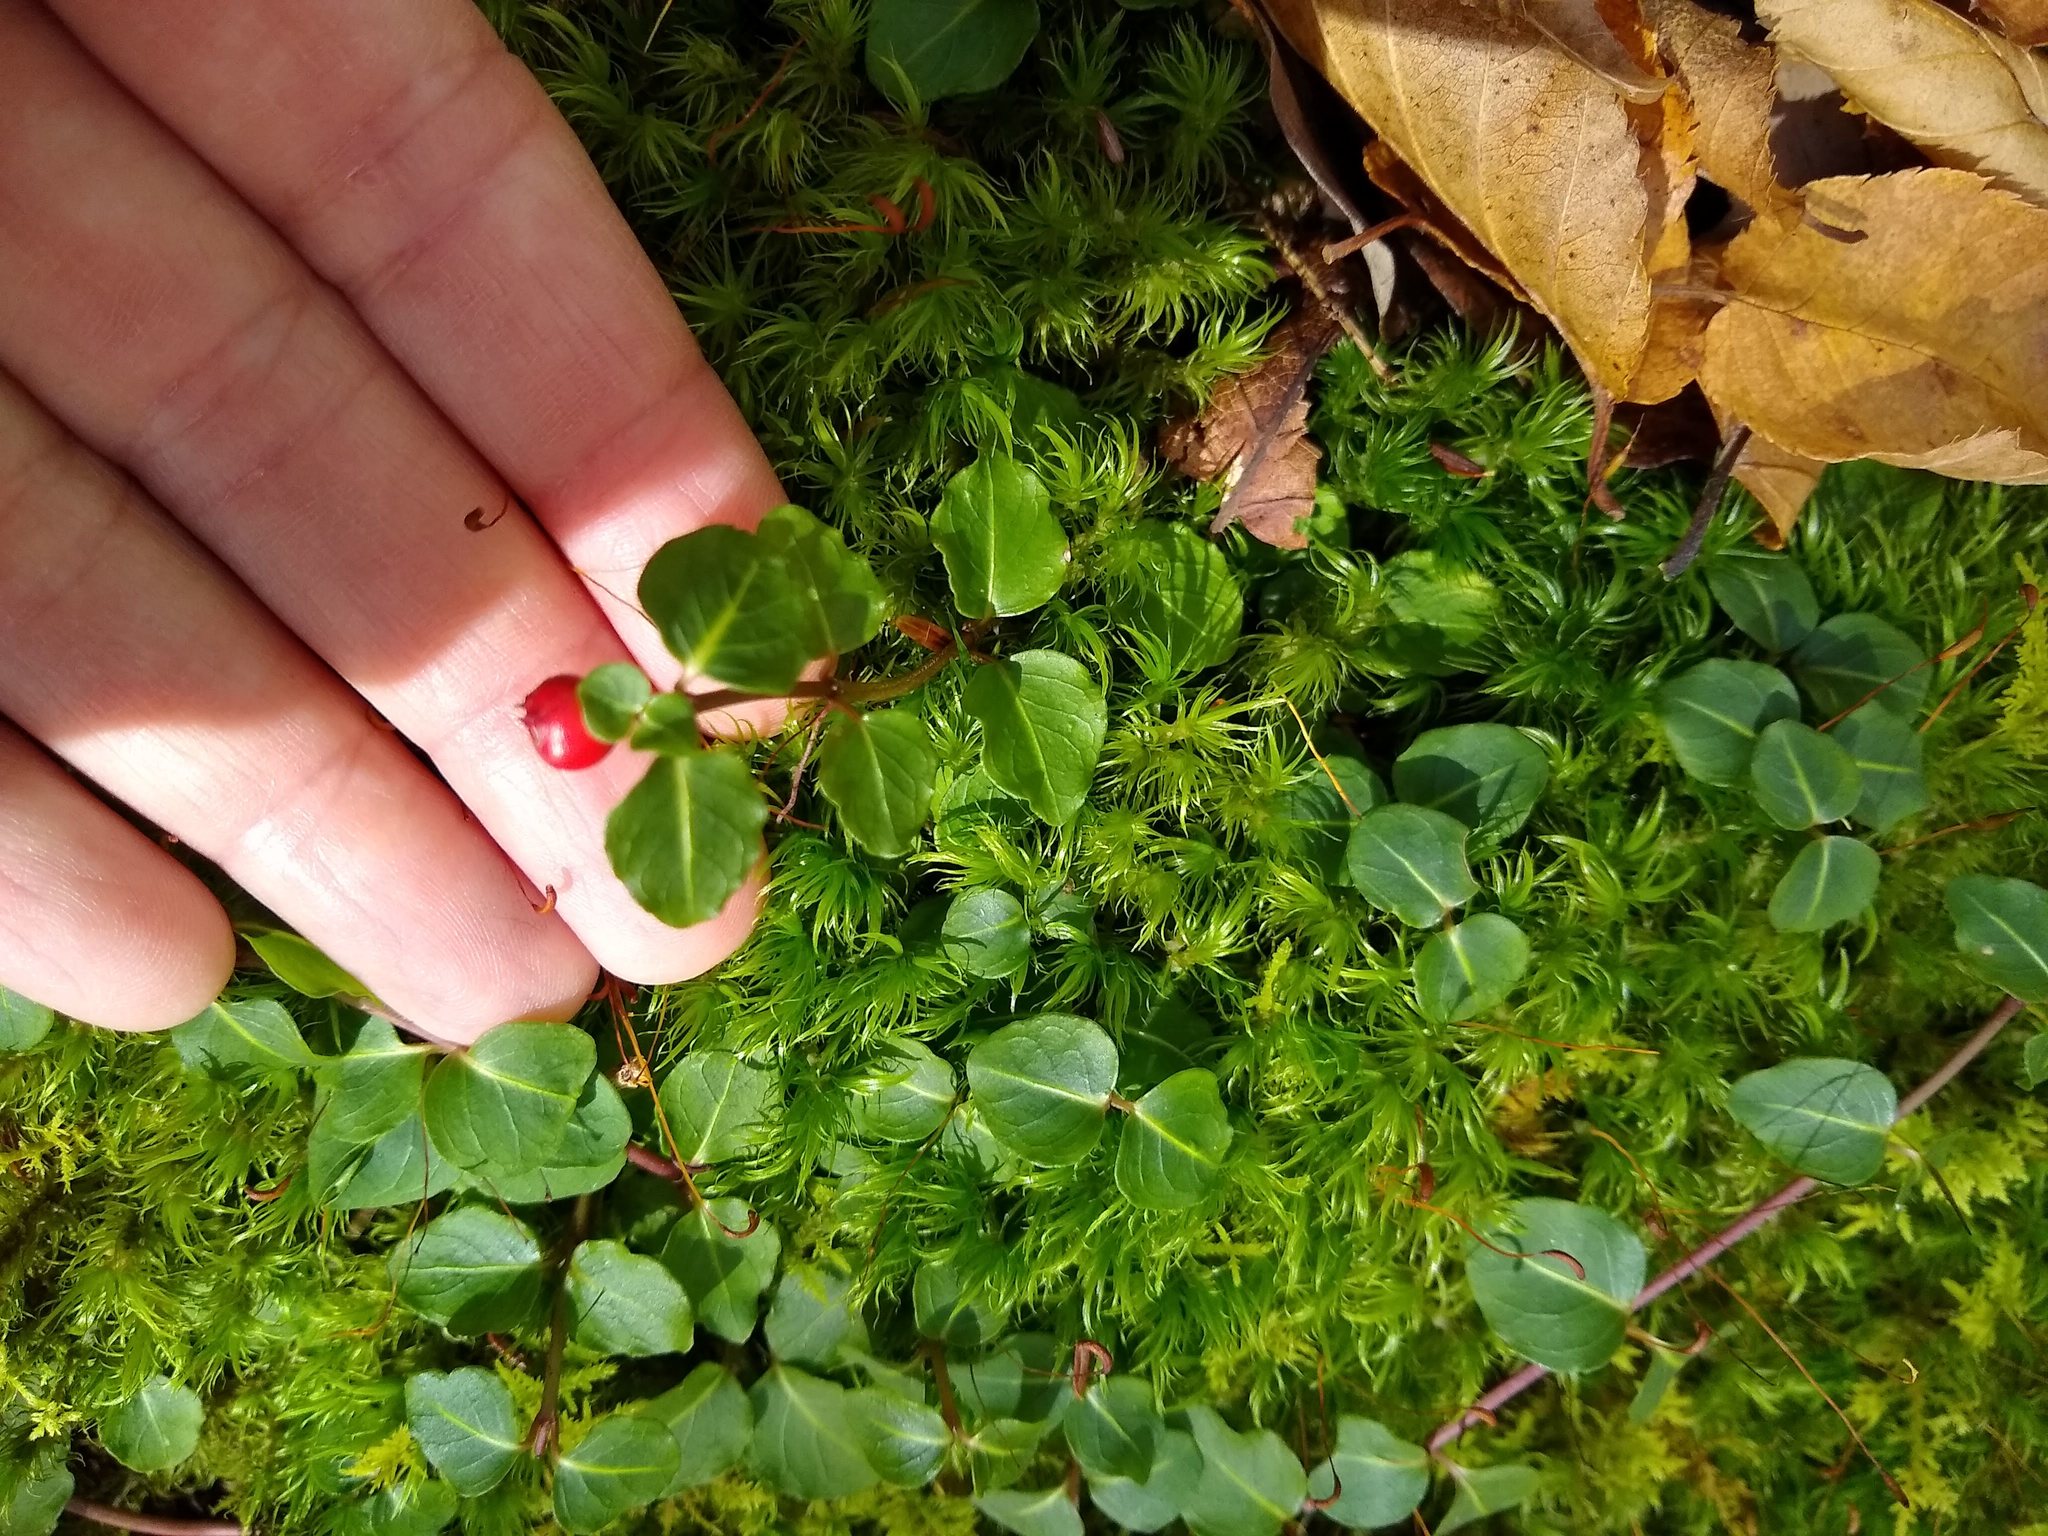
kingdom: Plantae
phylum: Tracheophyta
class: Magnoliopsida
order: Gentianales
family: Rubiaceae
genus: Mitchella
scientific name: Mitchella repens
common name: Partridge-berry
